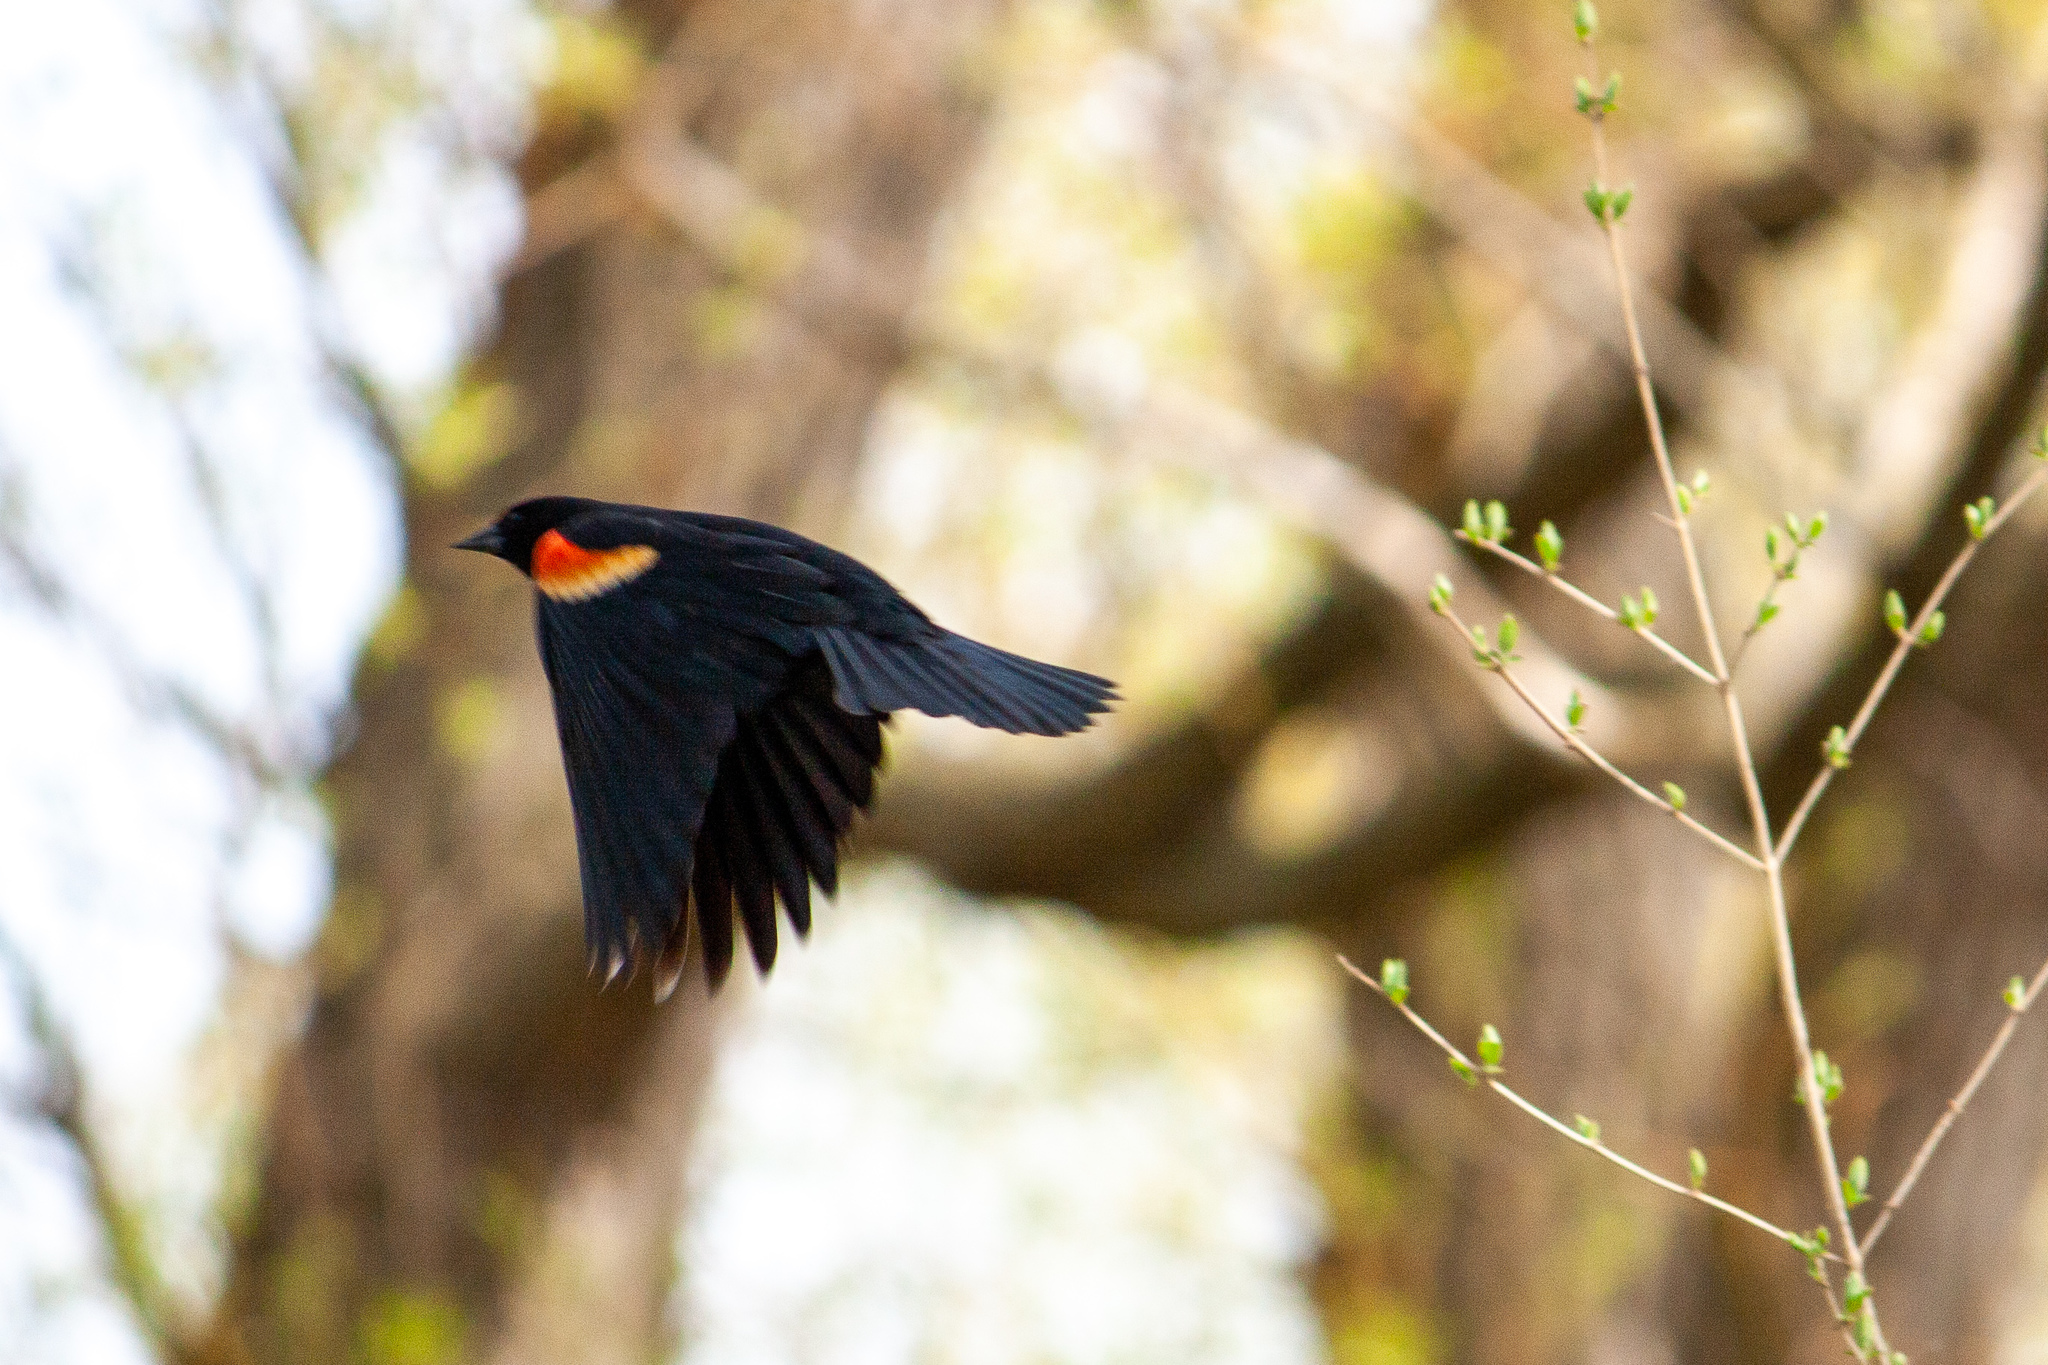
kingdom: Animalia
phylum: Chordata
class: Aves
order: Passeriformes
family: Icteridae
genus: Agelaius
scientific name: Agelaius phoeniceus
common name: Red-winged blackbird
